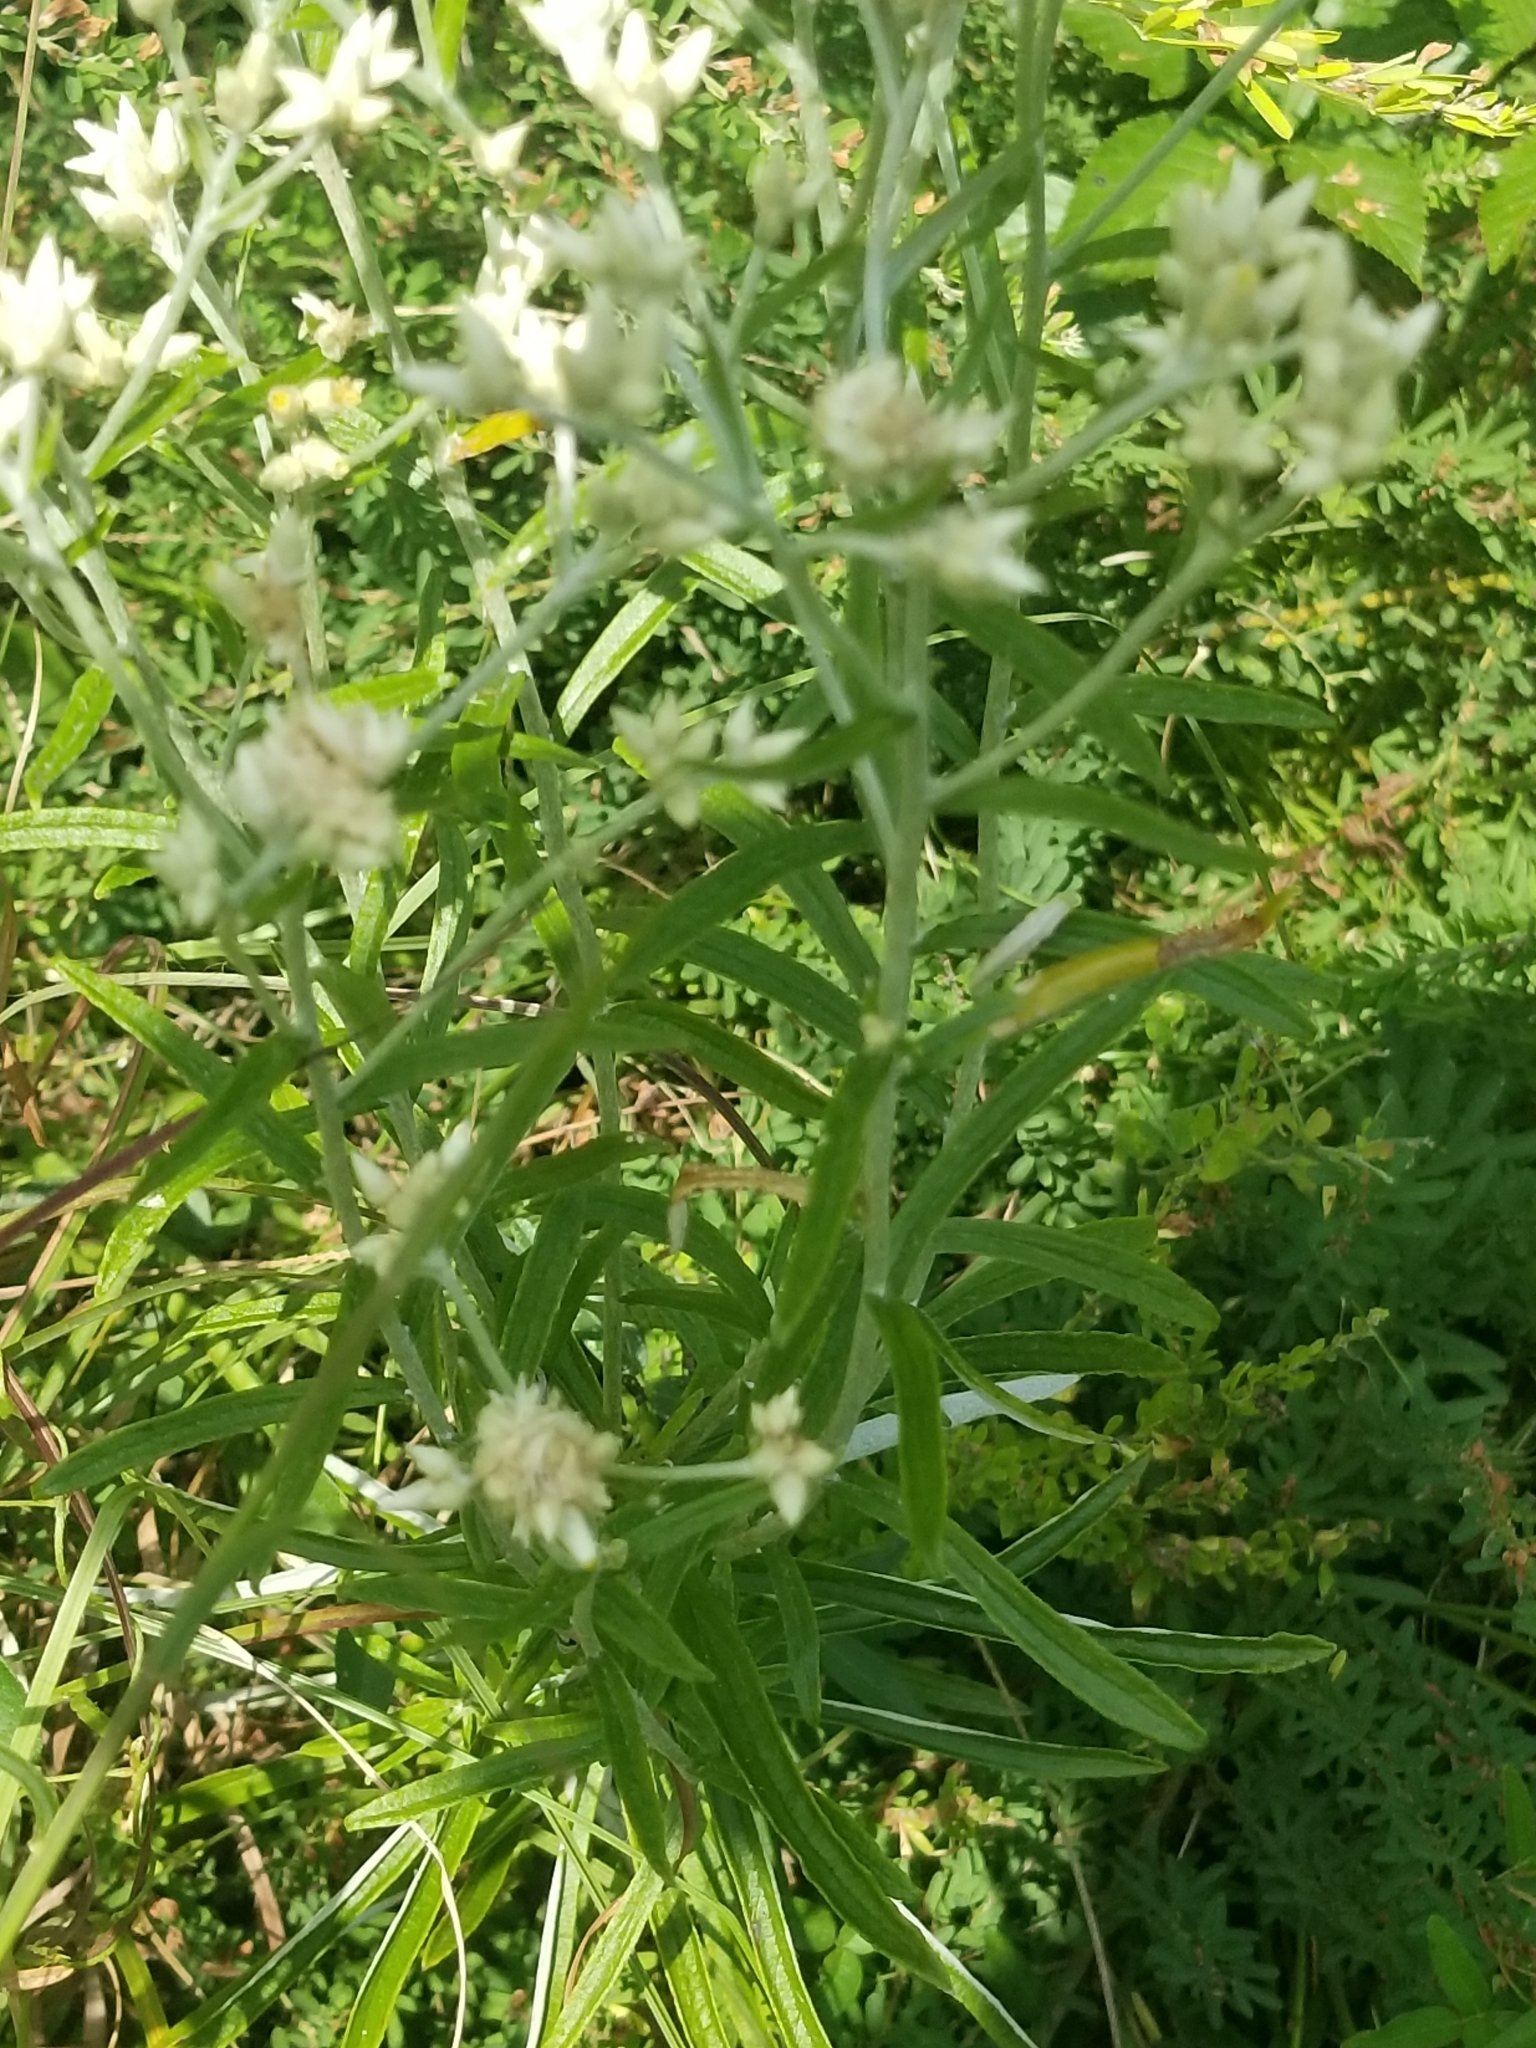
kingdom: Plantae
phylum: Tracheophyta
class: Magnoliopsida
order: Asterales
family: Asteraceae
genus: Pseudognaphalium
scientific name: Pseudognaphalium obtusifolium
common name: Eastern rabbit-tobacco
